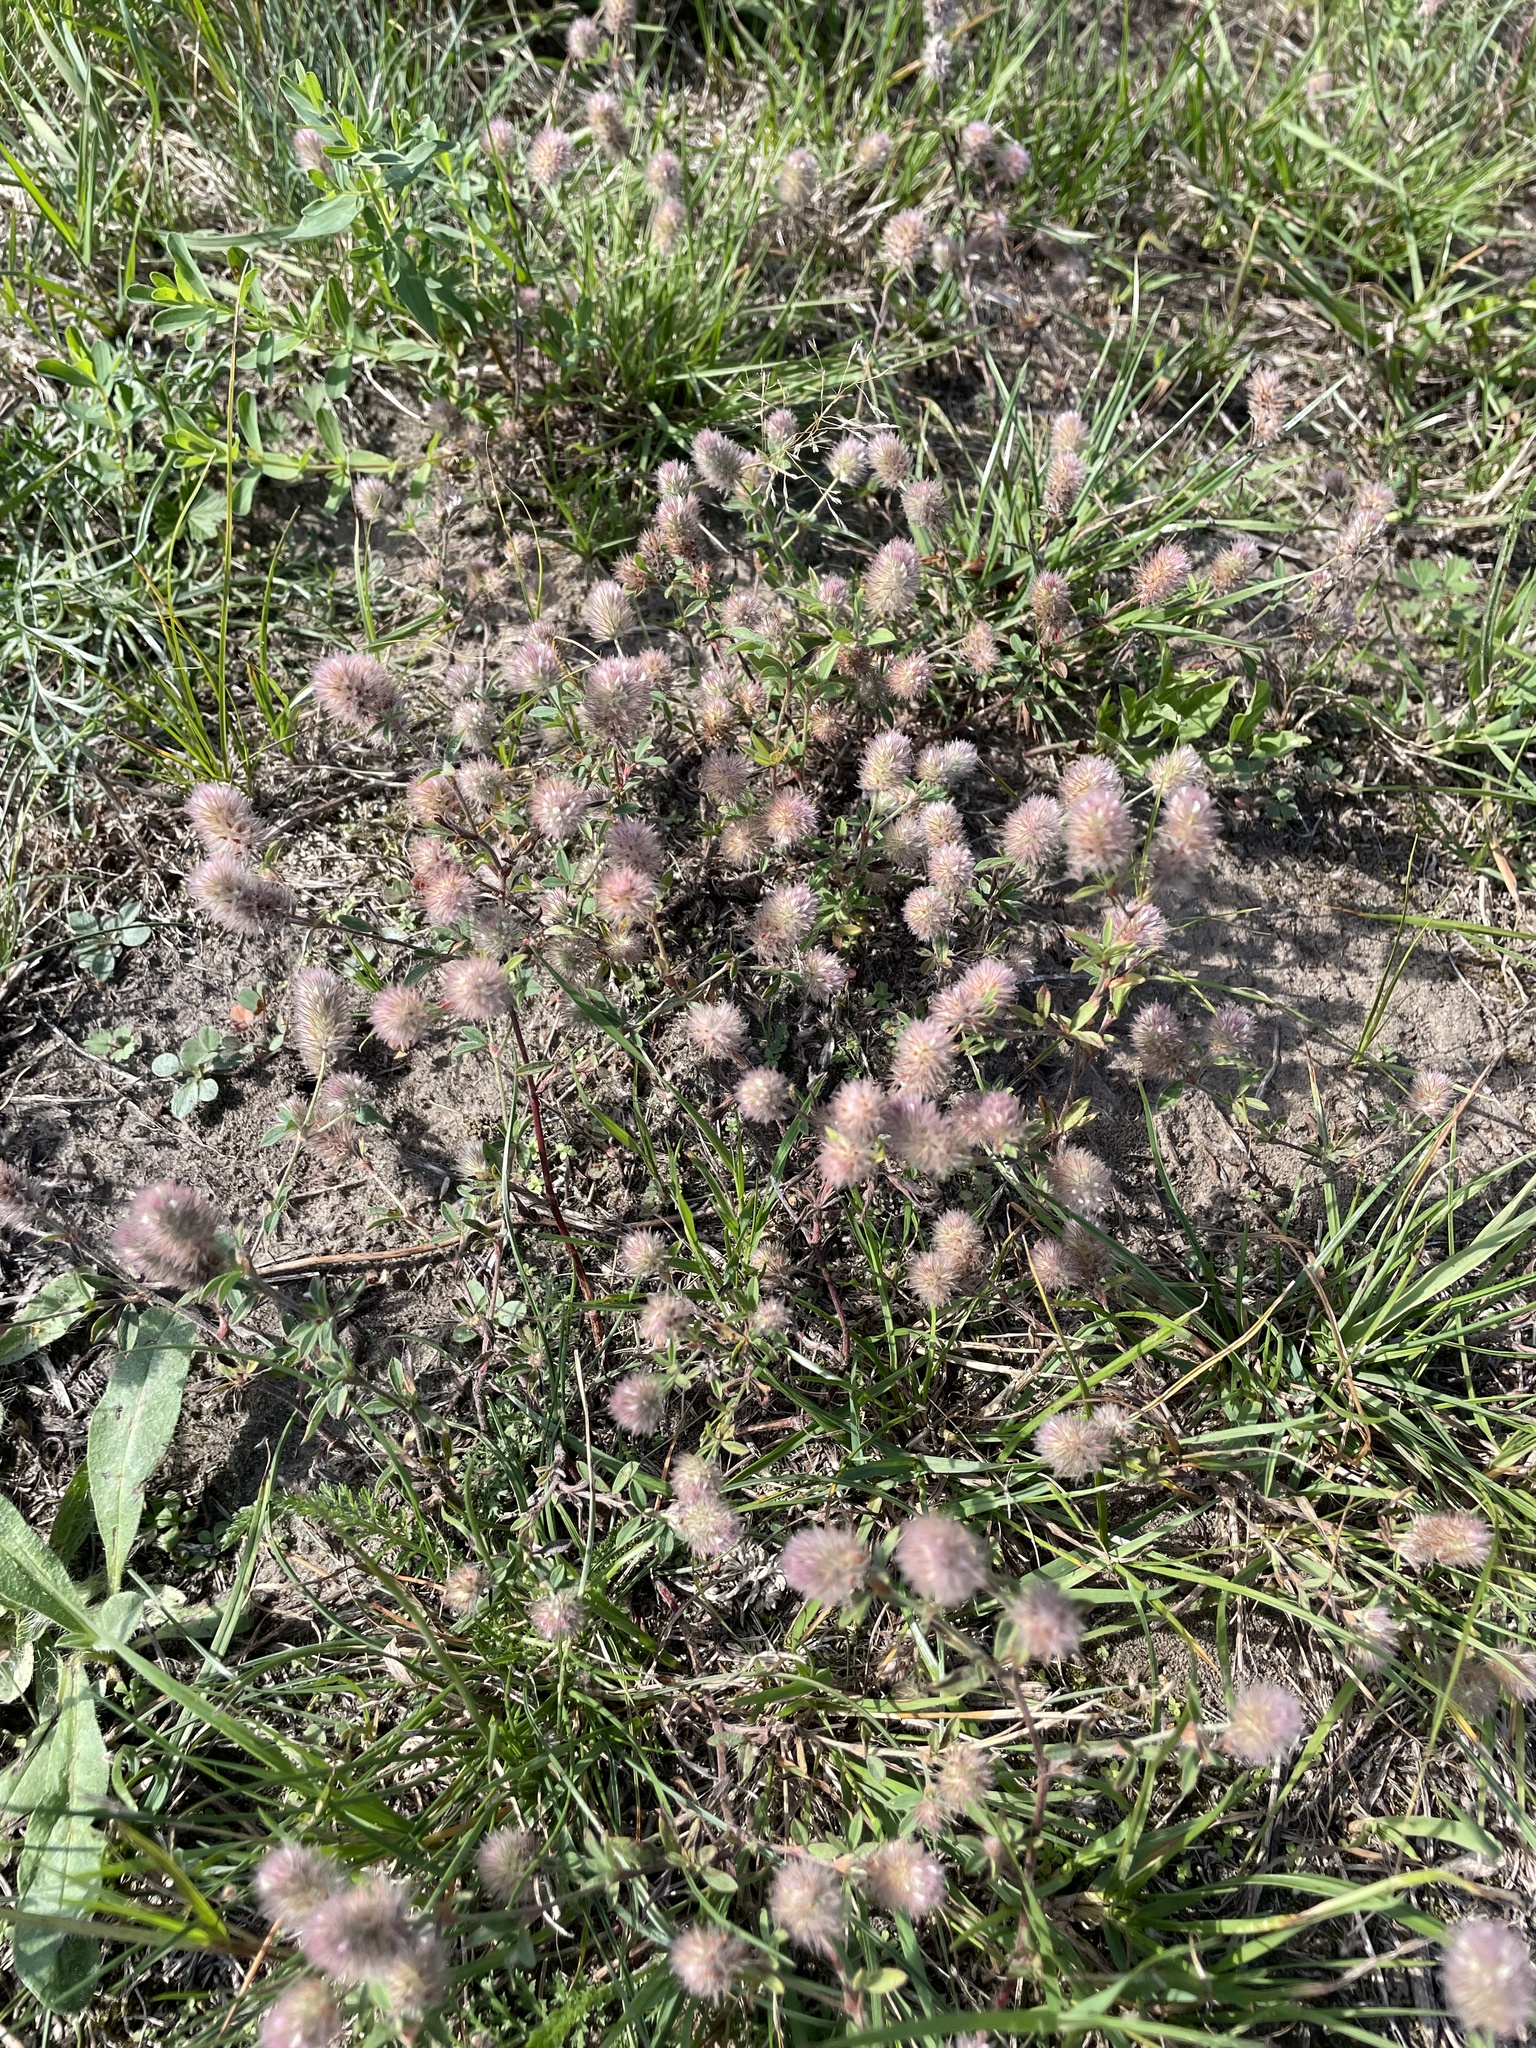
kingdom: Plantae
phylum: Tracheophyta
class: Magnoliopsida
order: Fabales
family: Fabaceae
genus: Trifolium
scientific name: Trifolium arvense
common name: Hare's-foot clover
